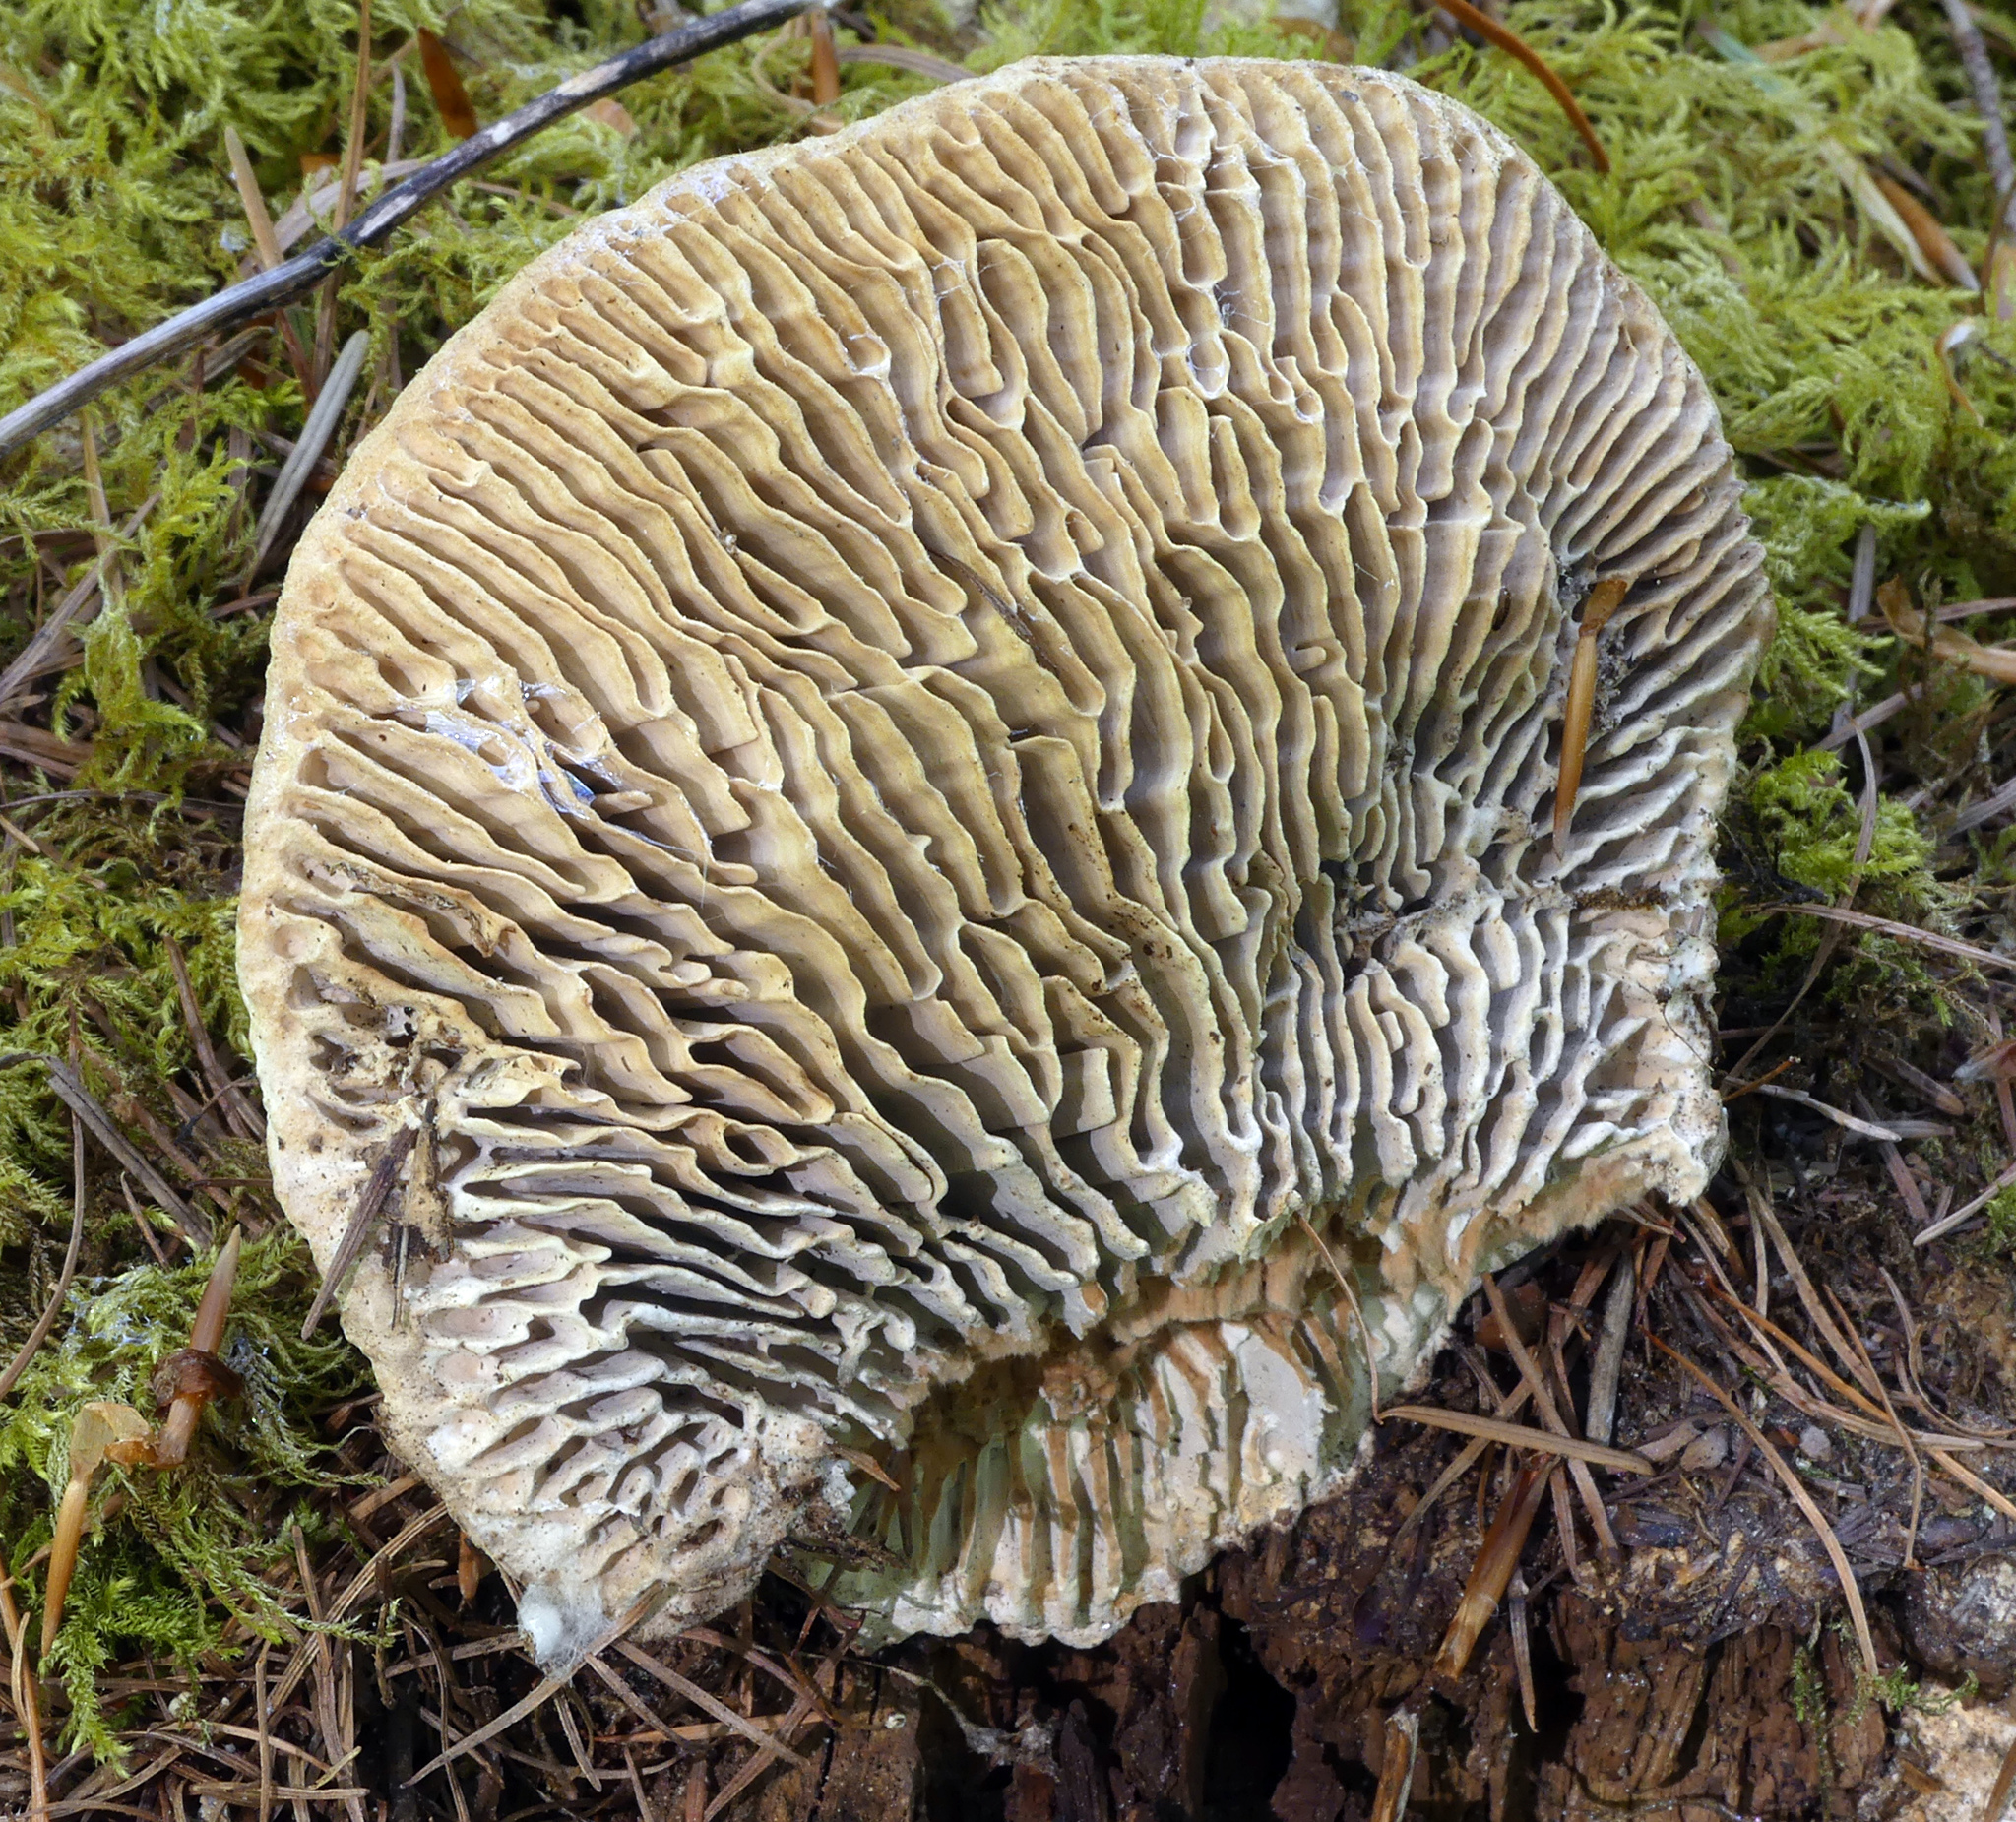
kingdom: Fungi
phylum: Basidiomycota
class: Agaricomycetes
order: Polyporales
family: Fomitopsidaceae
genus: Fomitopsis
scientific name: Fomitopsis
